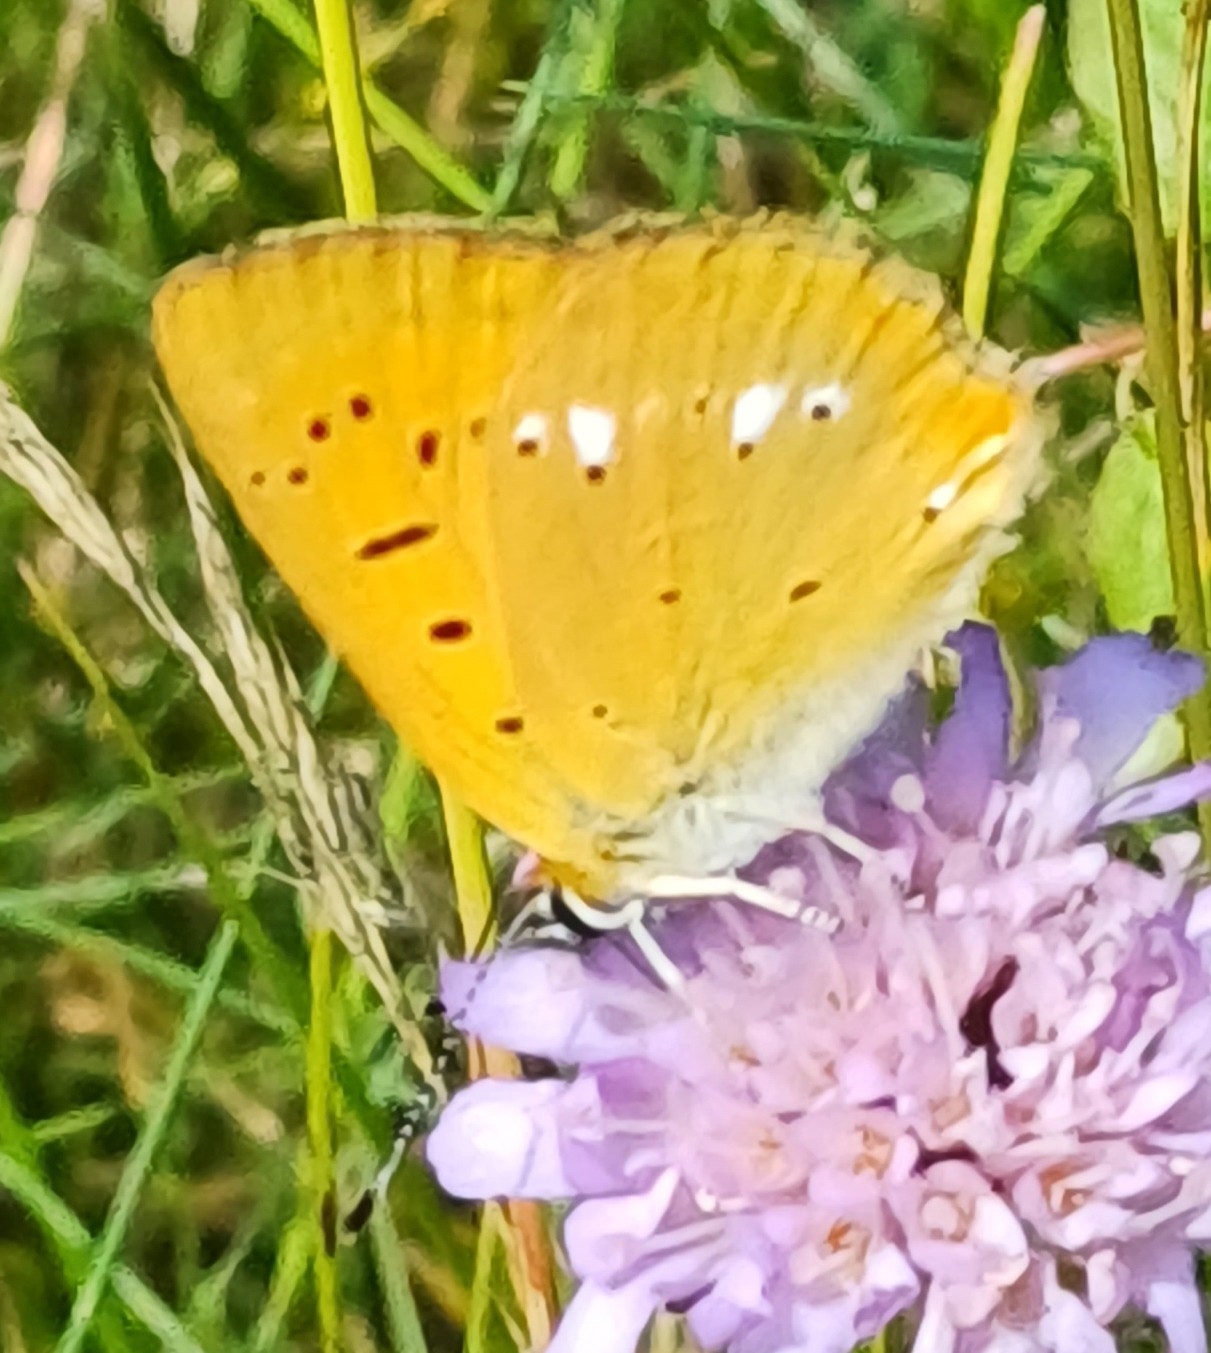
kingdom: Animalia
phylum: Arthropoda
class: Insecta
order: Lepidoptera
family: Lycaenidae
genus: Lycaena
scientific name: Lycaena virgaureae
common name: Scarce copper
